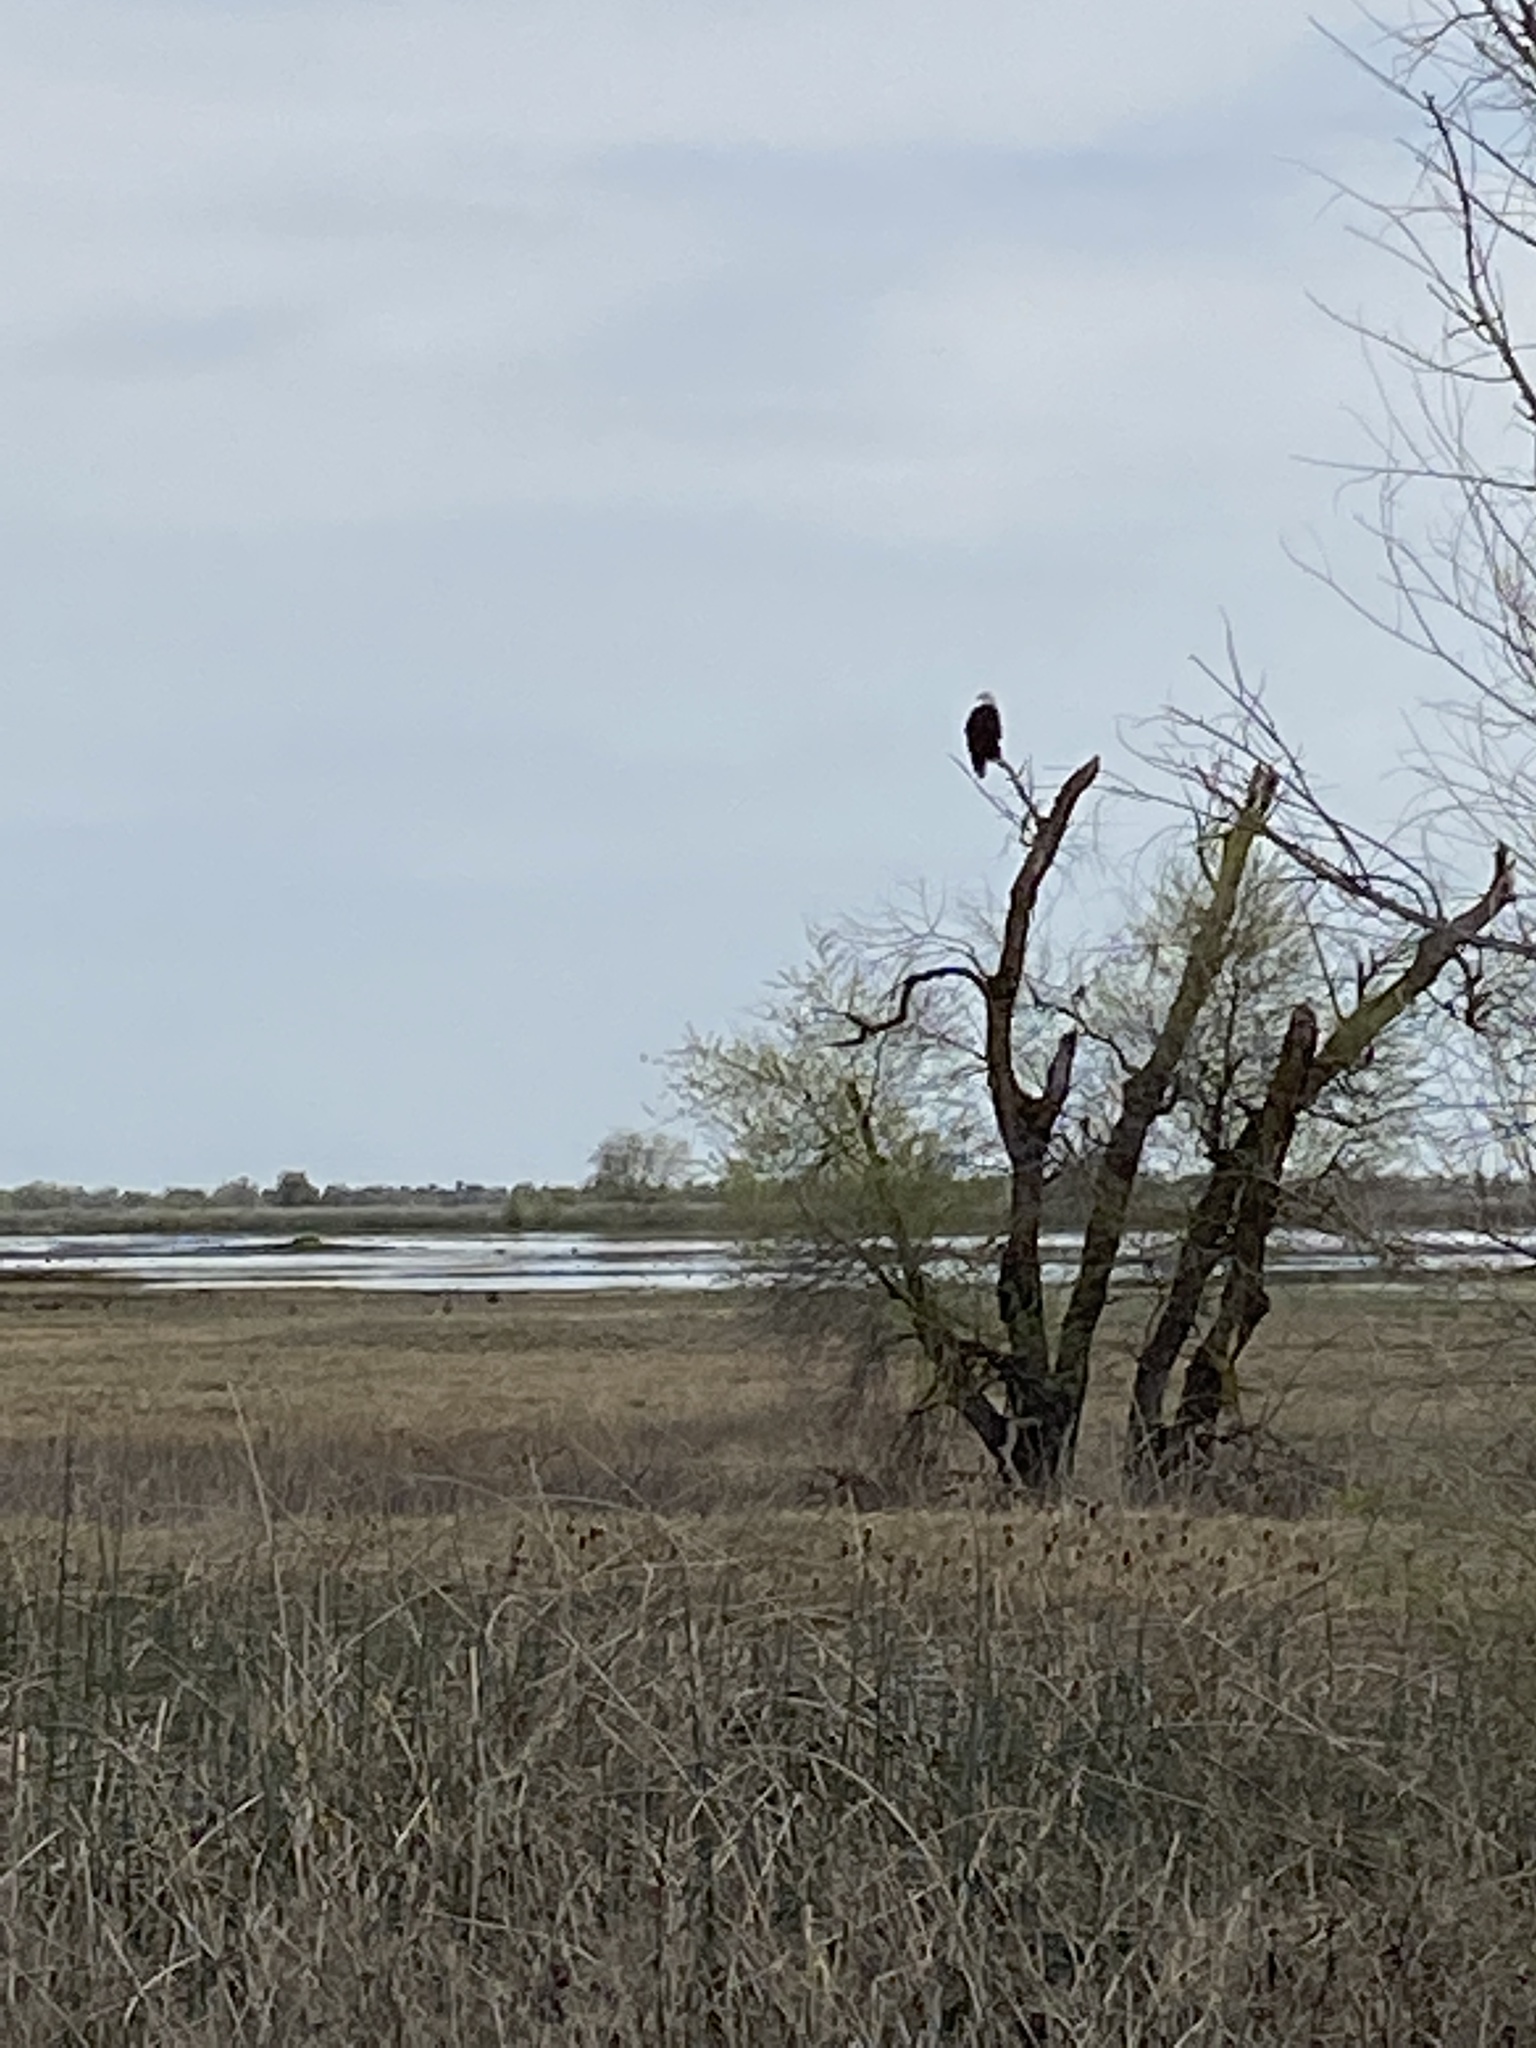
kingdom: Animalia
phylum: Chordata
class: Aves
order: Accipitriformes
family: Accipitridae
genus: Haliaeetus
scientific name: Haliaeetus leucocephalus
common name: Bald eagle
